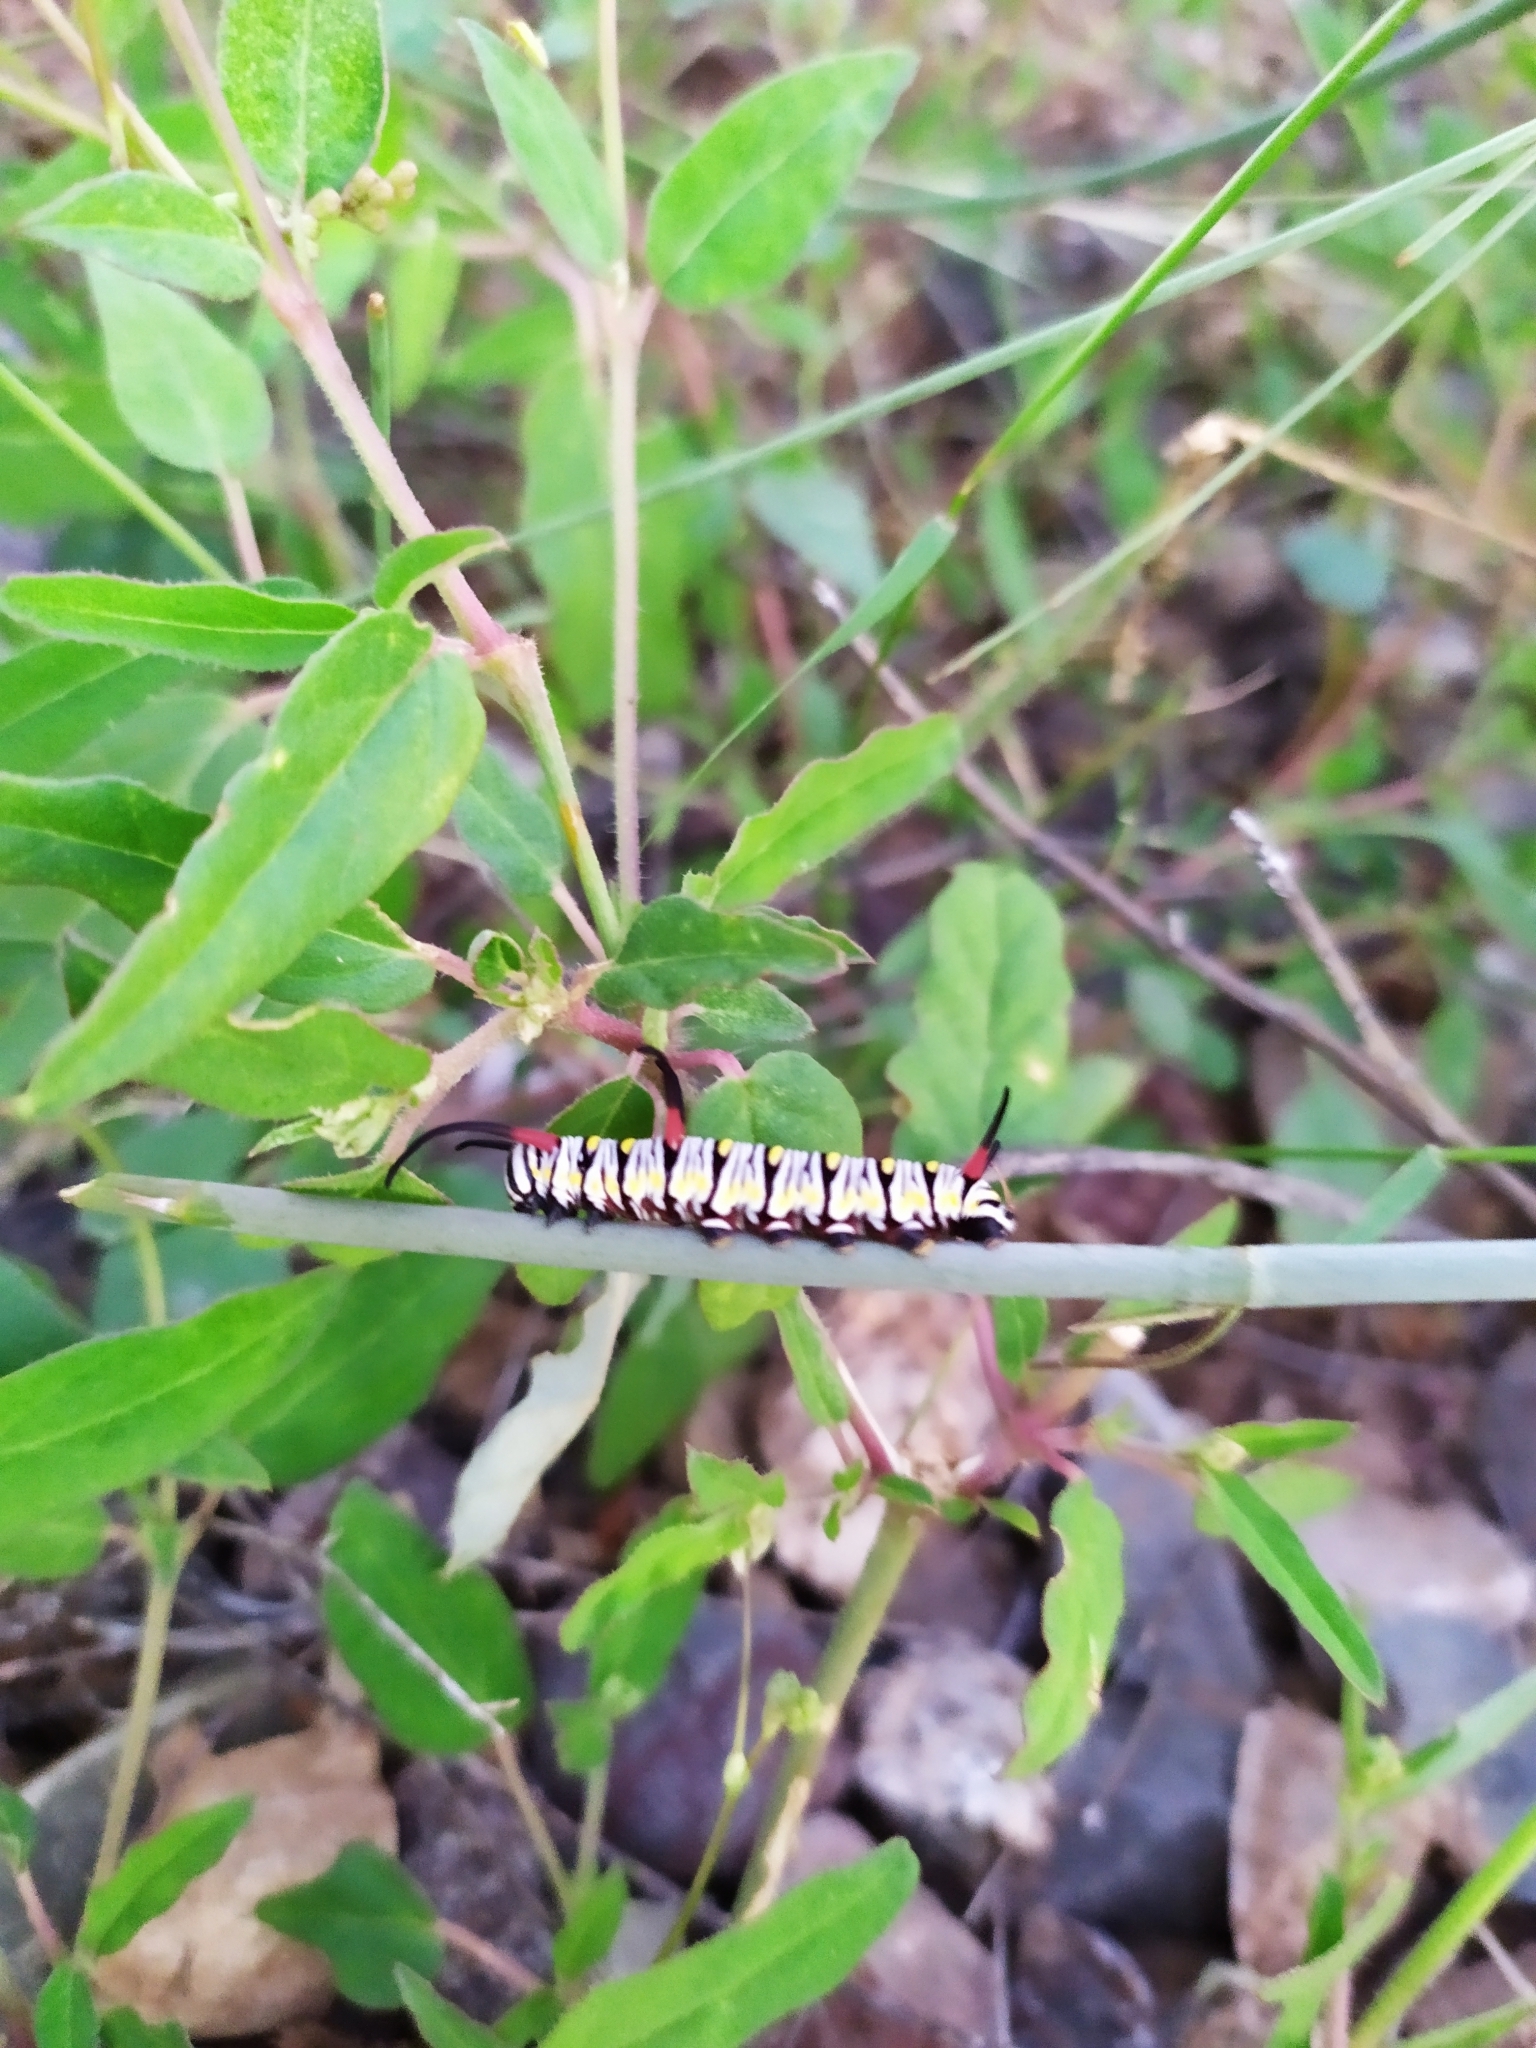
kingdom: Animalia
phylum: Arthropoda
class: Insecta
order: Lepidoptera
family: Nymphalidae
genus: Danaus
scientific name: Danaus gilippus
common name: Queen
